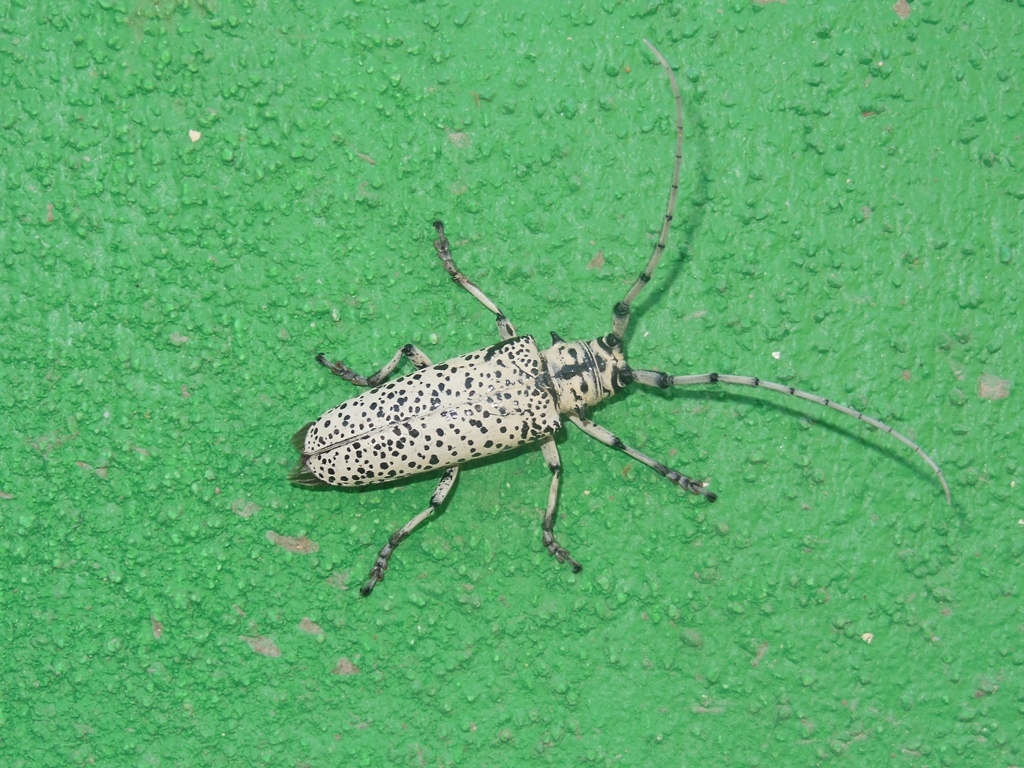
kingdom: Animalia
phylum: Arthropoda
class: Insecta
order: Coleoptera
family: Cerambycidae
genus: Deliathis
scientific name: Deliathis impluviatus
